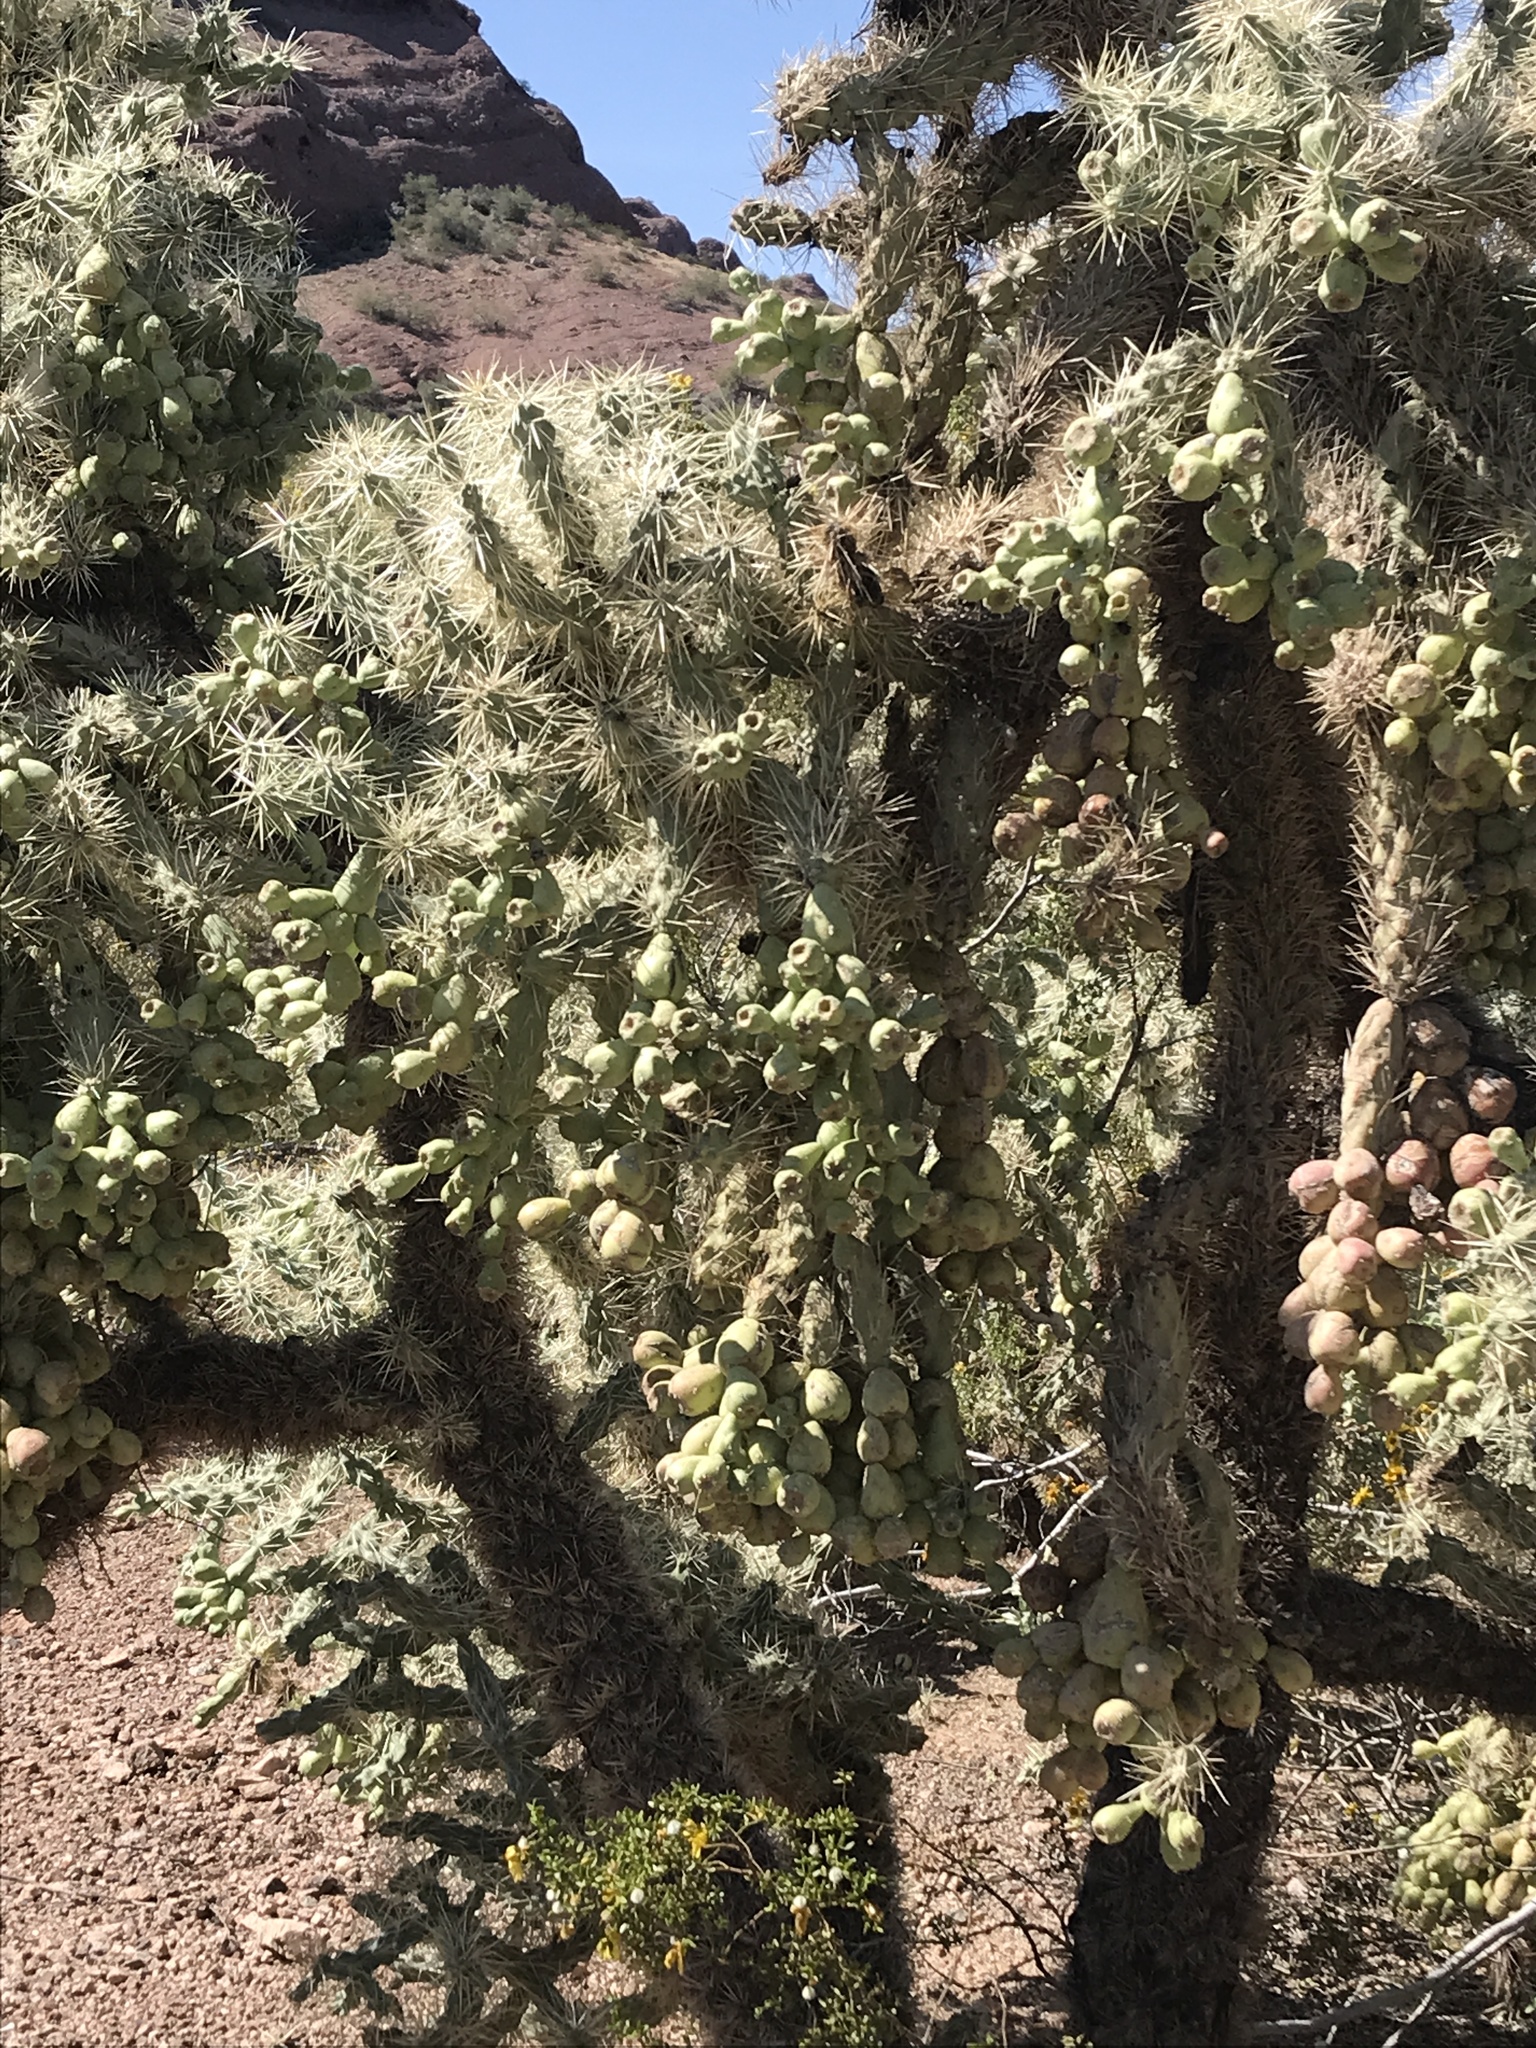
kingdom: Plantae
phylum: Tracheophyta
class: Magnoliopsida
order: Caryophyllales
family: Cactaceae
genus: Cylindropuntia
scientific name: Cylindropuntia fulgida
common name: Jumping cholla
